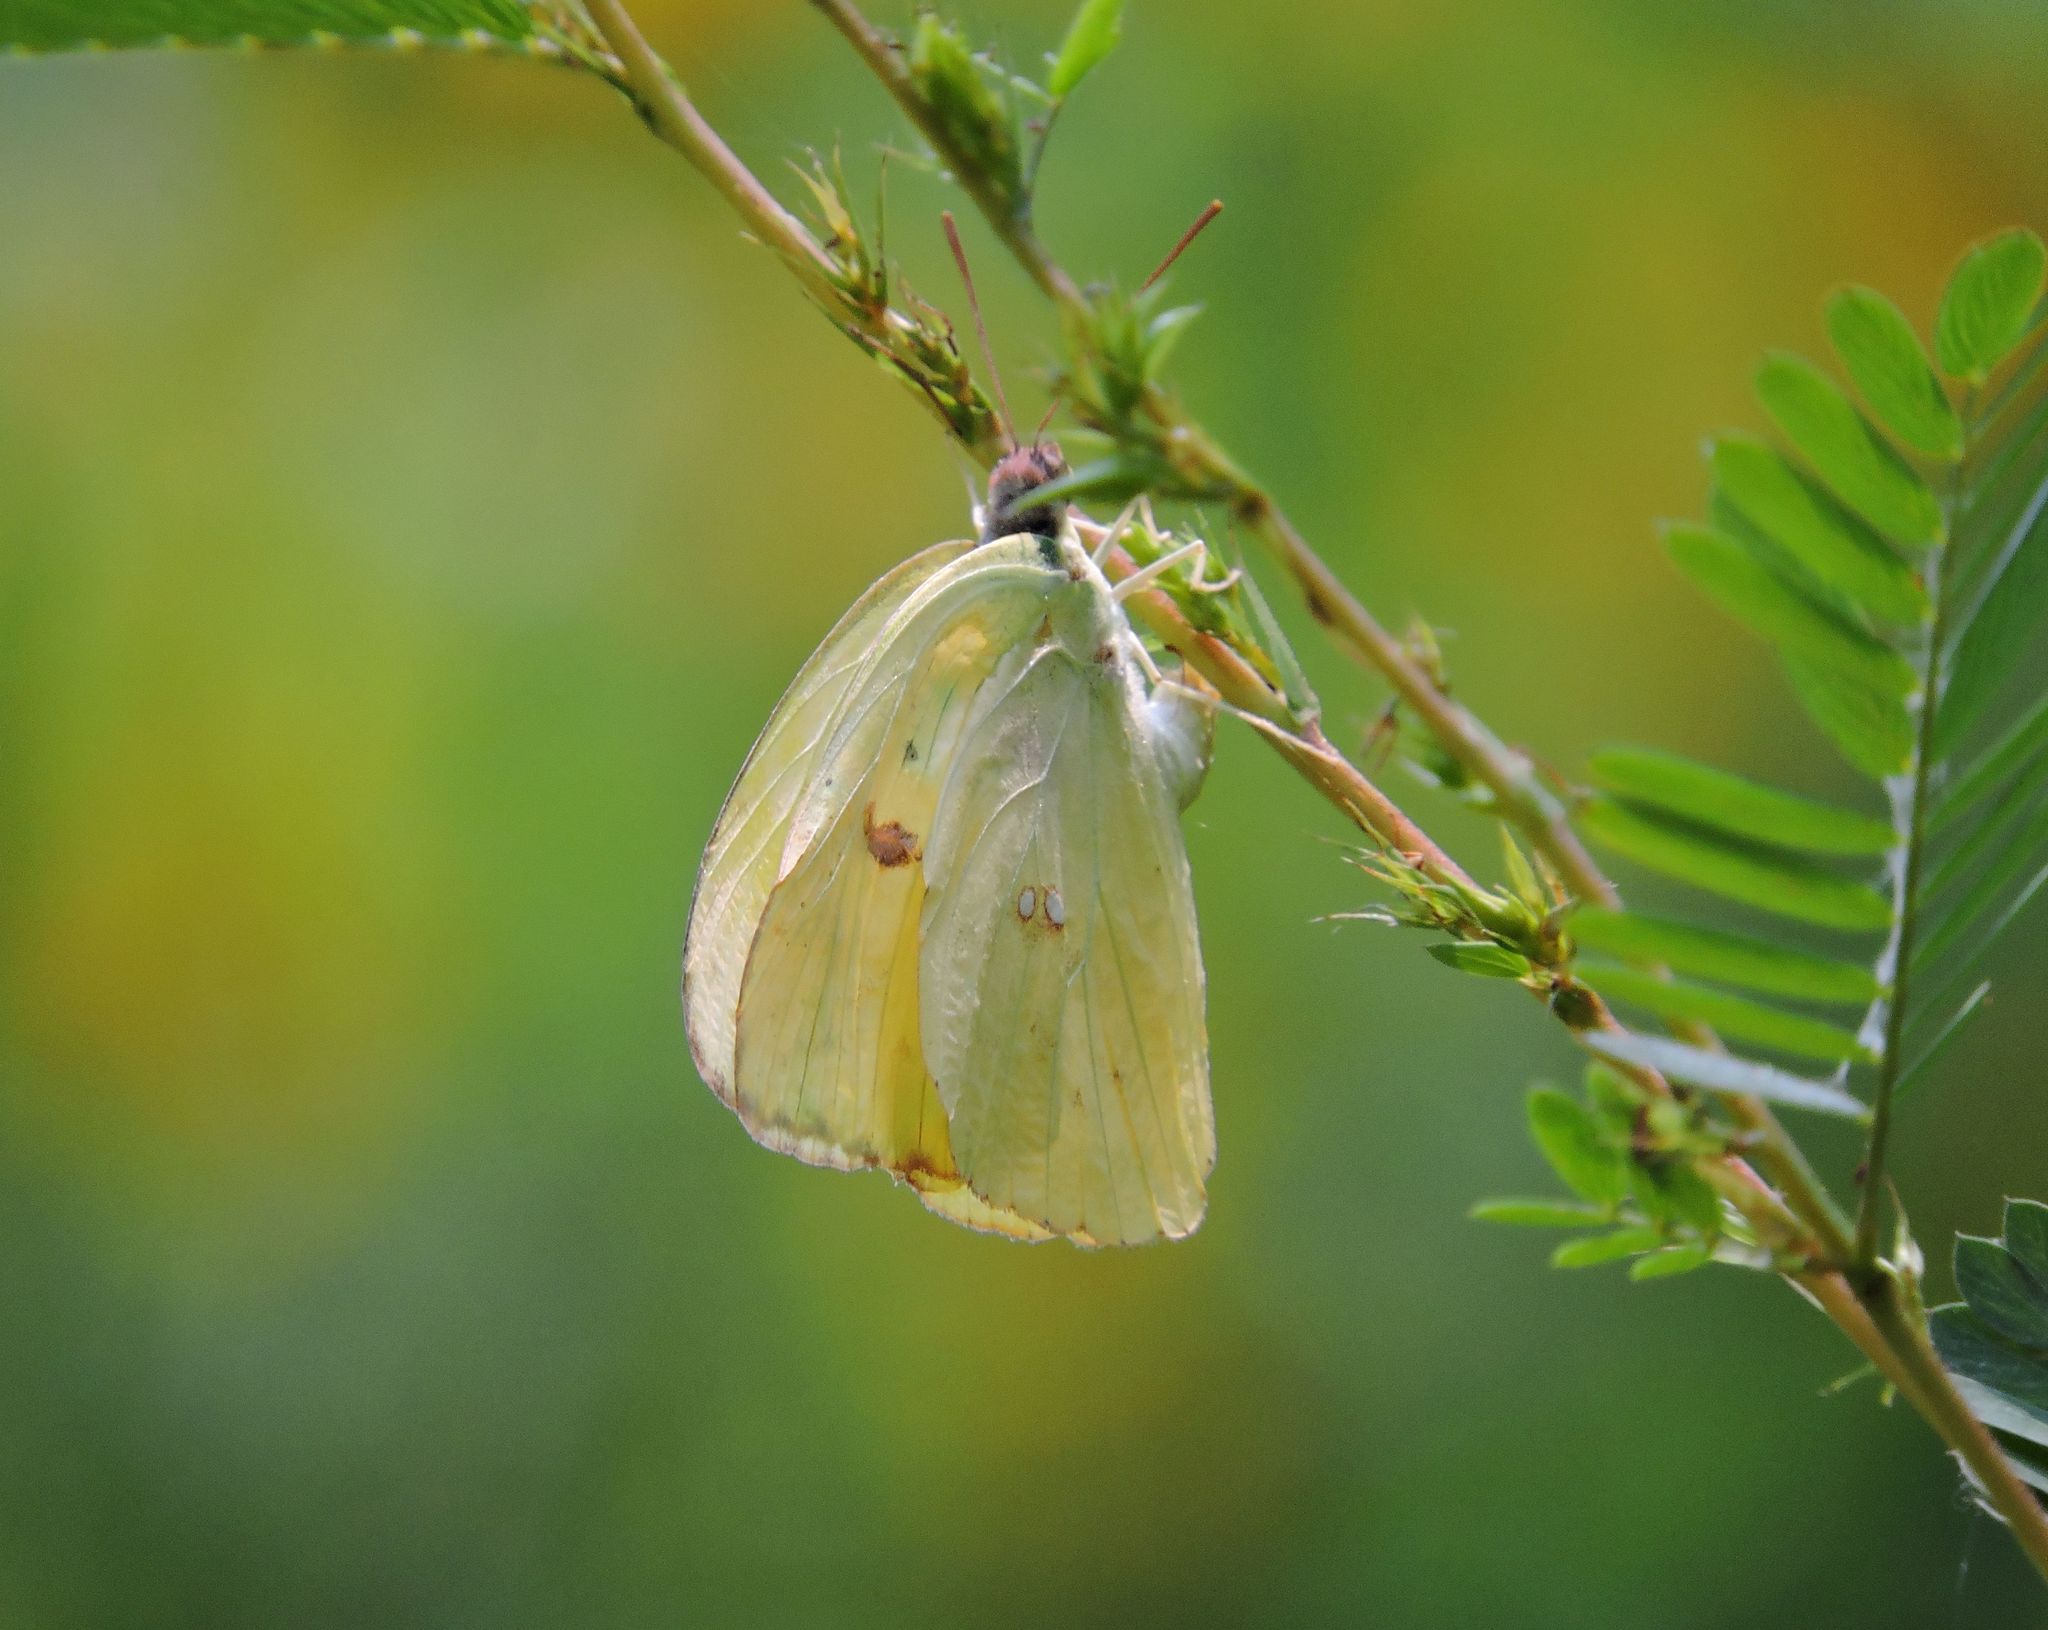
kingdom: Animalia
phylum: Arthropoda
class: Insecta
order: Lepidoptera
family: Pieridae
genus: Phoebis
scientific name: Phoebis sennae
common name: Cloudless sulphur
